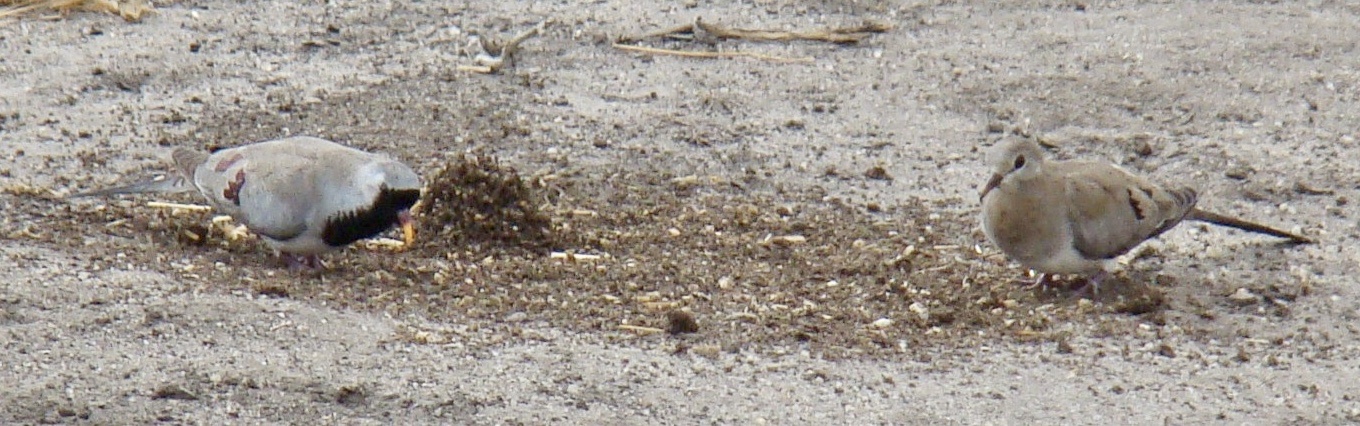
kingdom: Animalia
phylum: Chordata
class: Aves
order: Columbiformes
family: Columbidae
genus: Oena
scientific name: Oena capensis
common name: Namaqua dove
